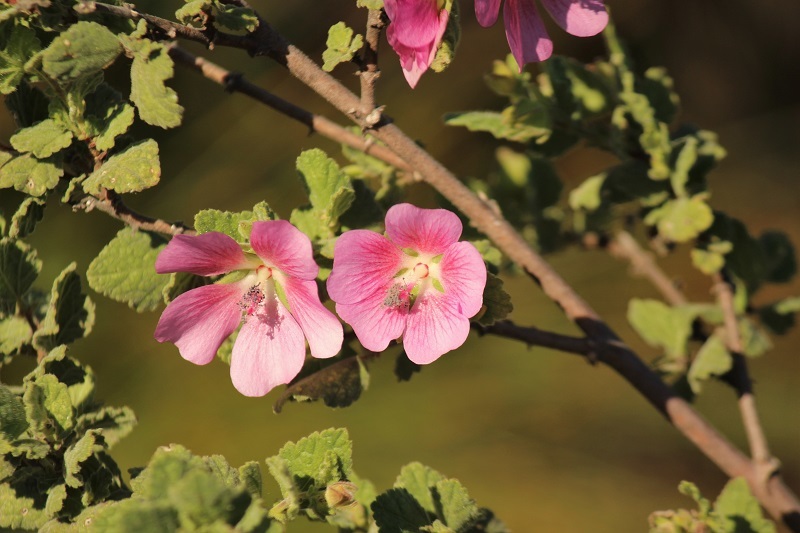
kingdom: Plantae
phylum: Tracheophyta
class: Magnoliopsida
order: Malvales
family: Malvaceae
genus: Anisodontea
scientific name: Anisodontea scabrosa
